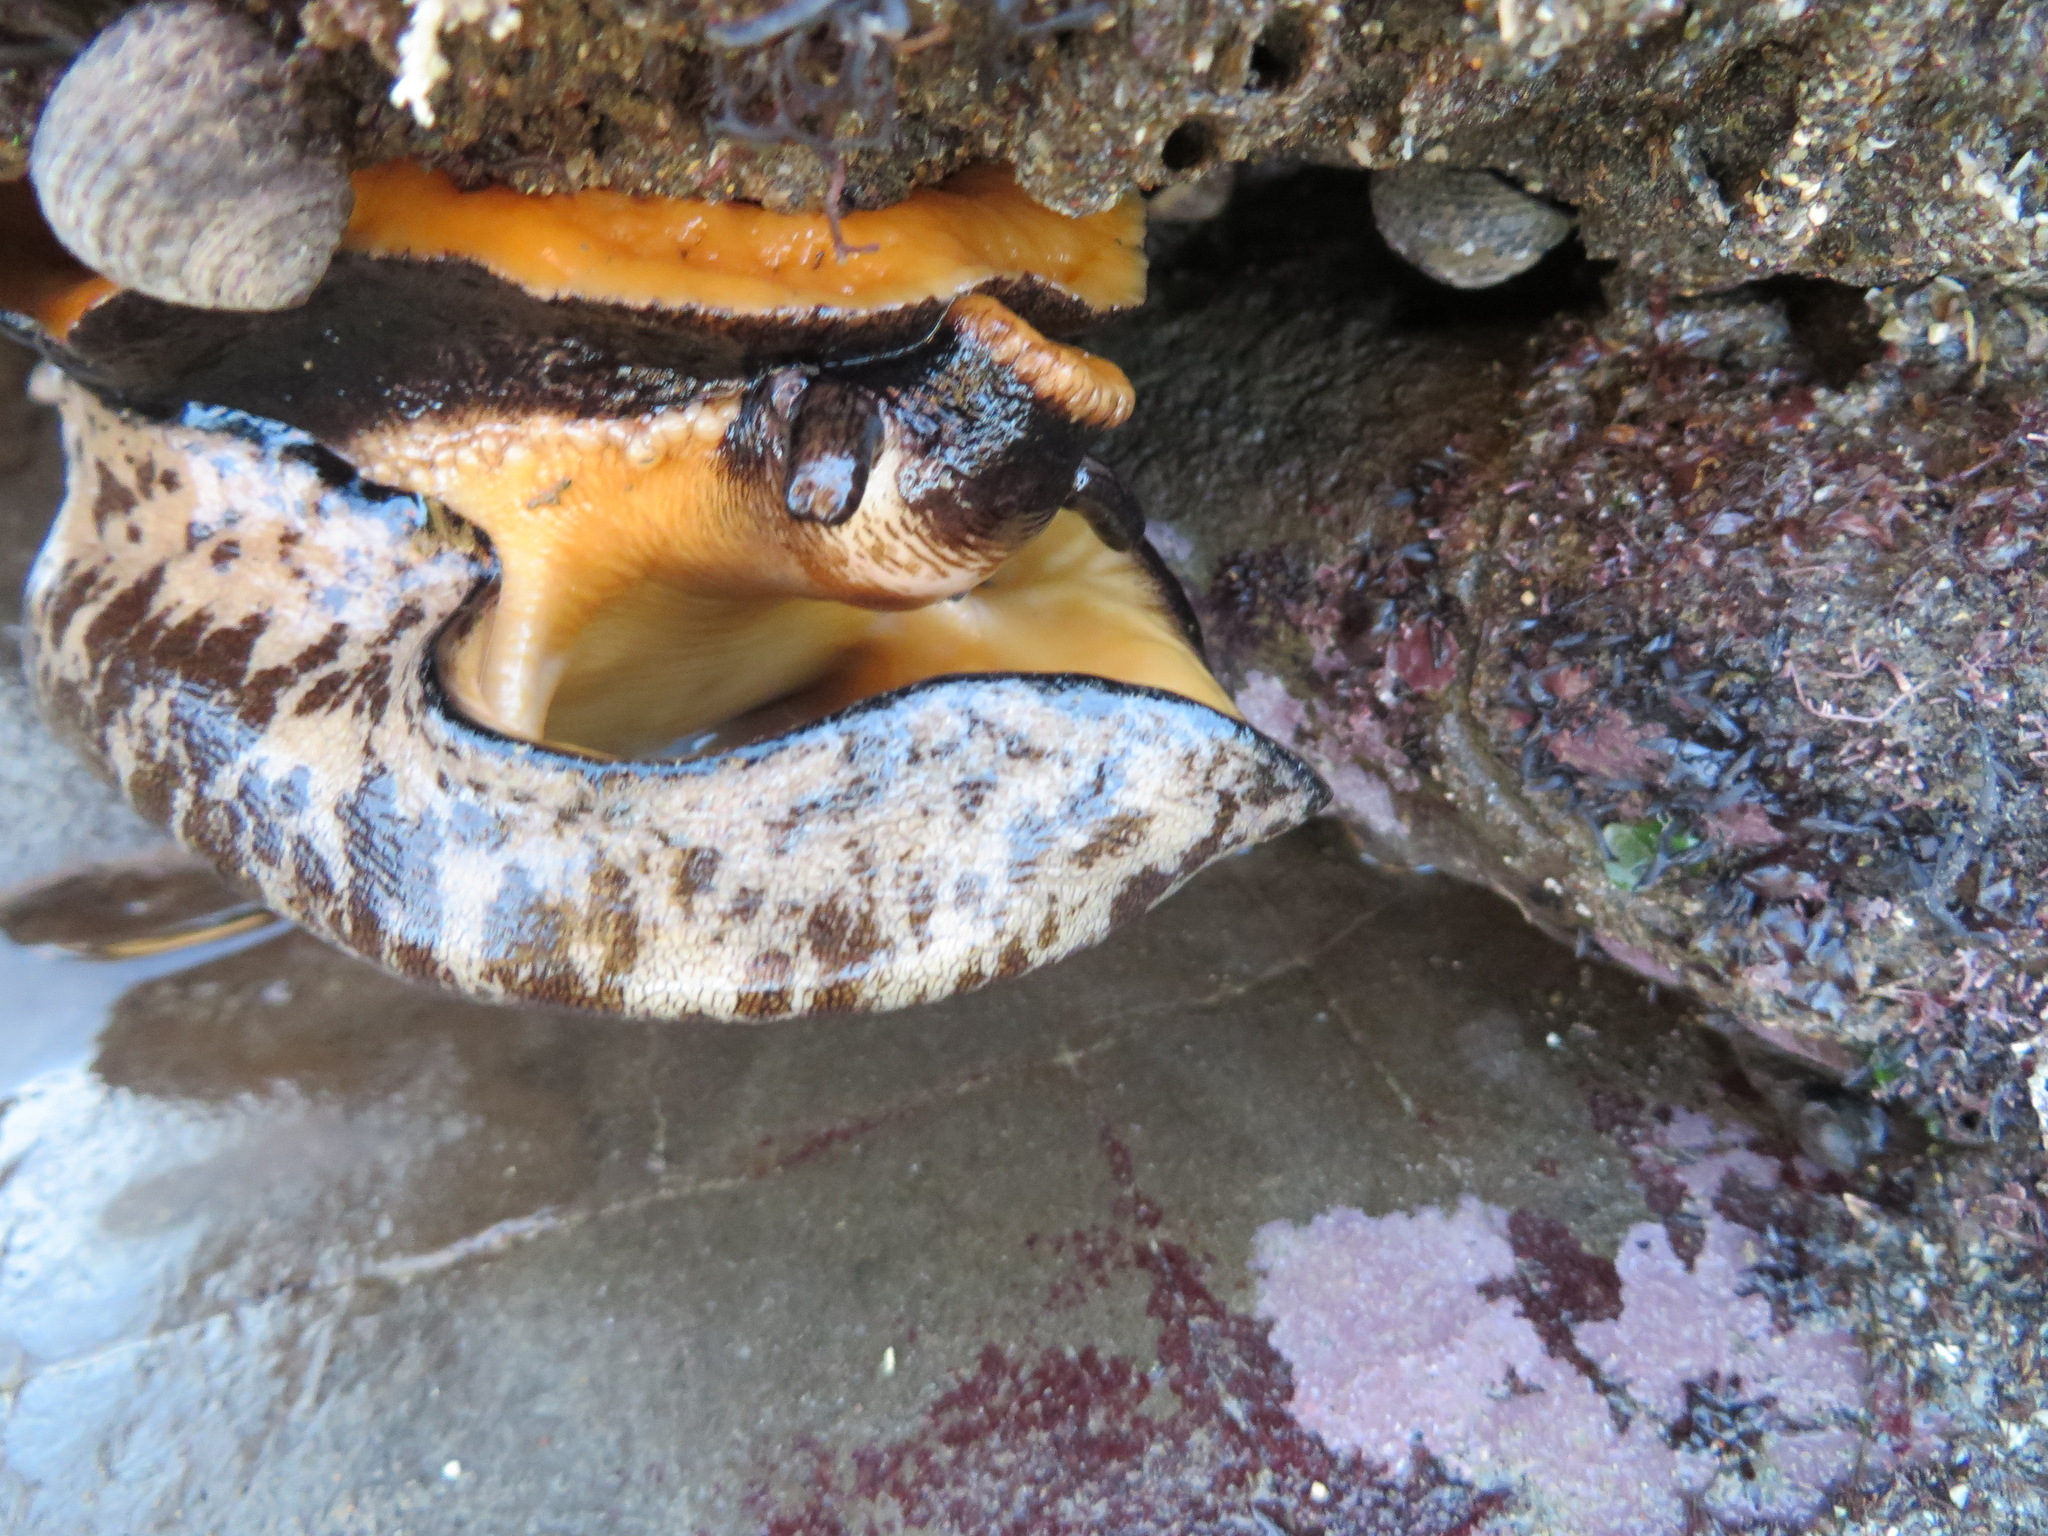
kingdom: Animalia
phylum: Mollusca
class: Gastropoda
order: Lepetellida
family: Fissurellidae
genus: Megathura
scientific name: Megathura crenulata
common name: Giant keyhole limpet
